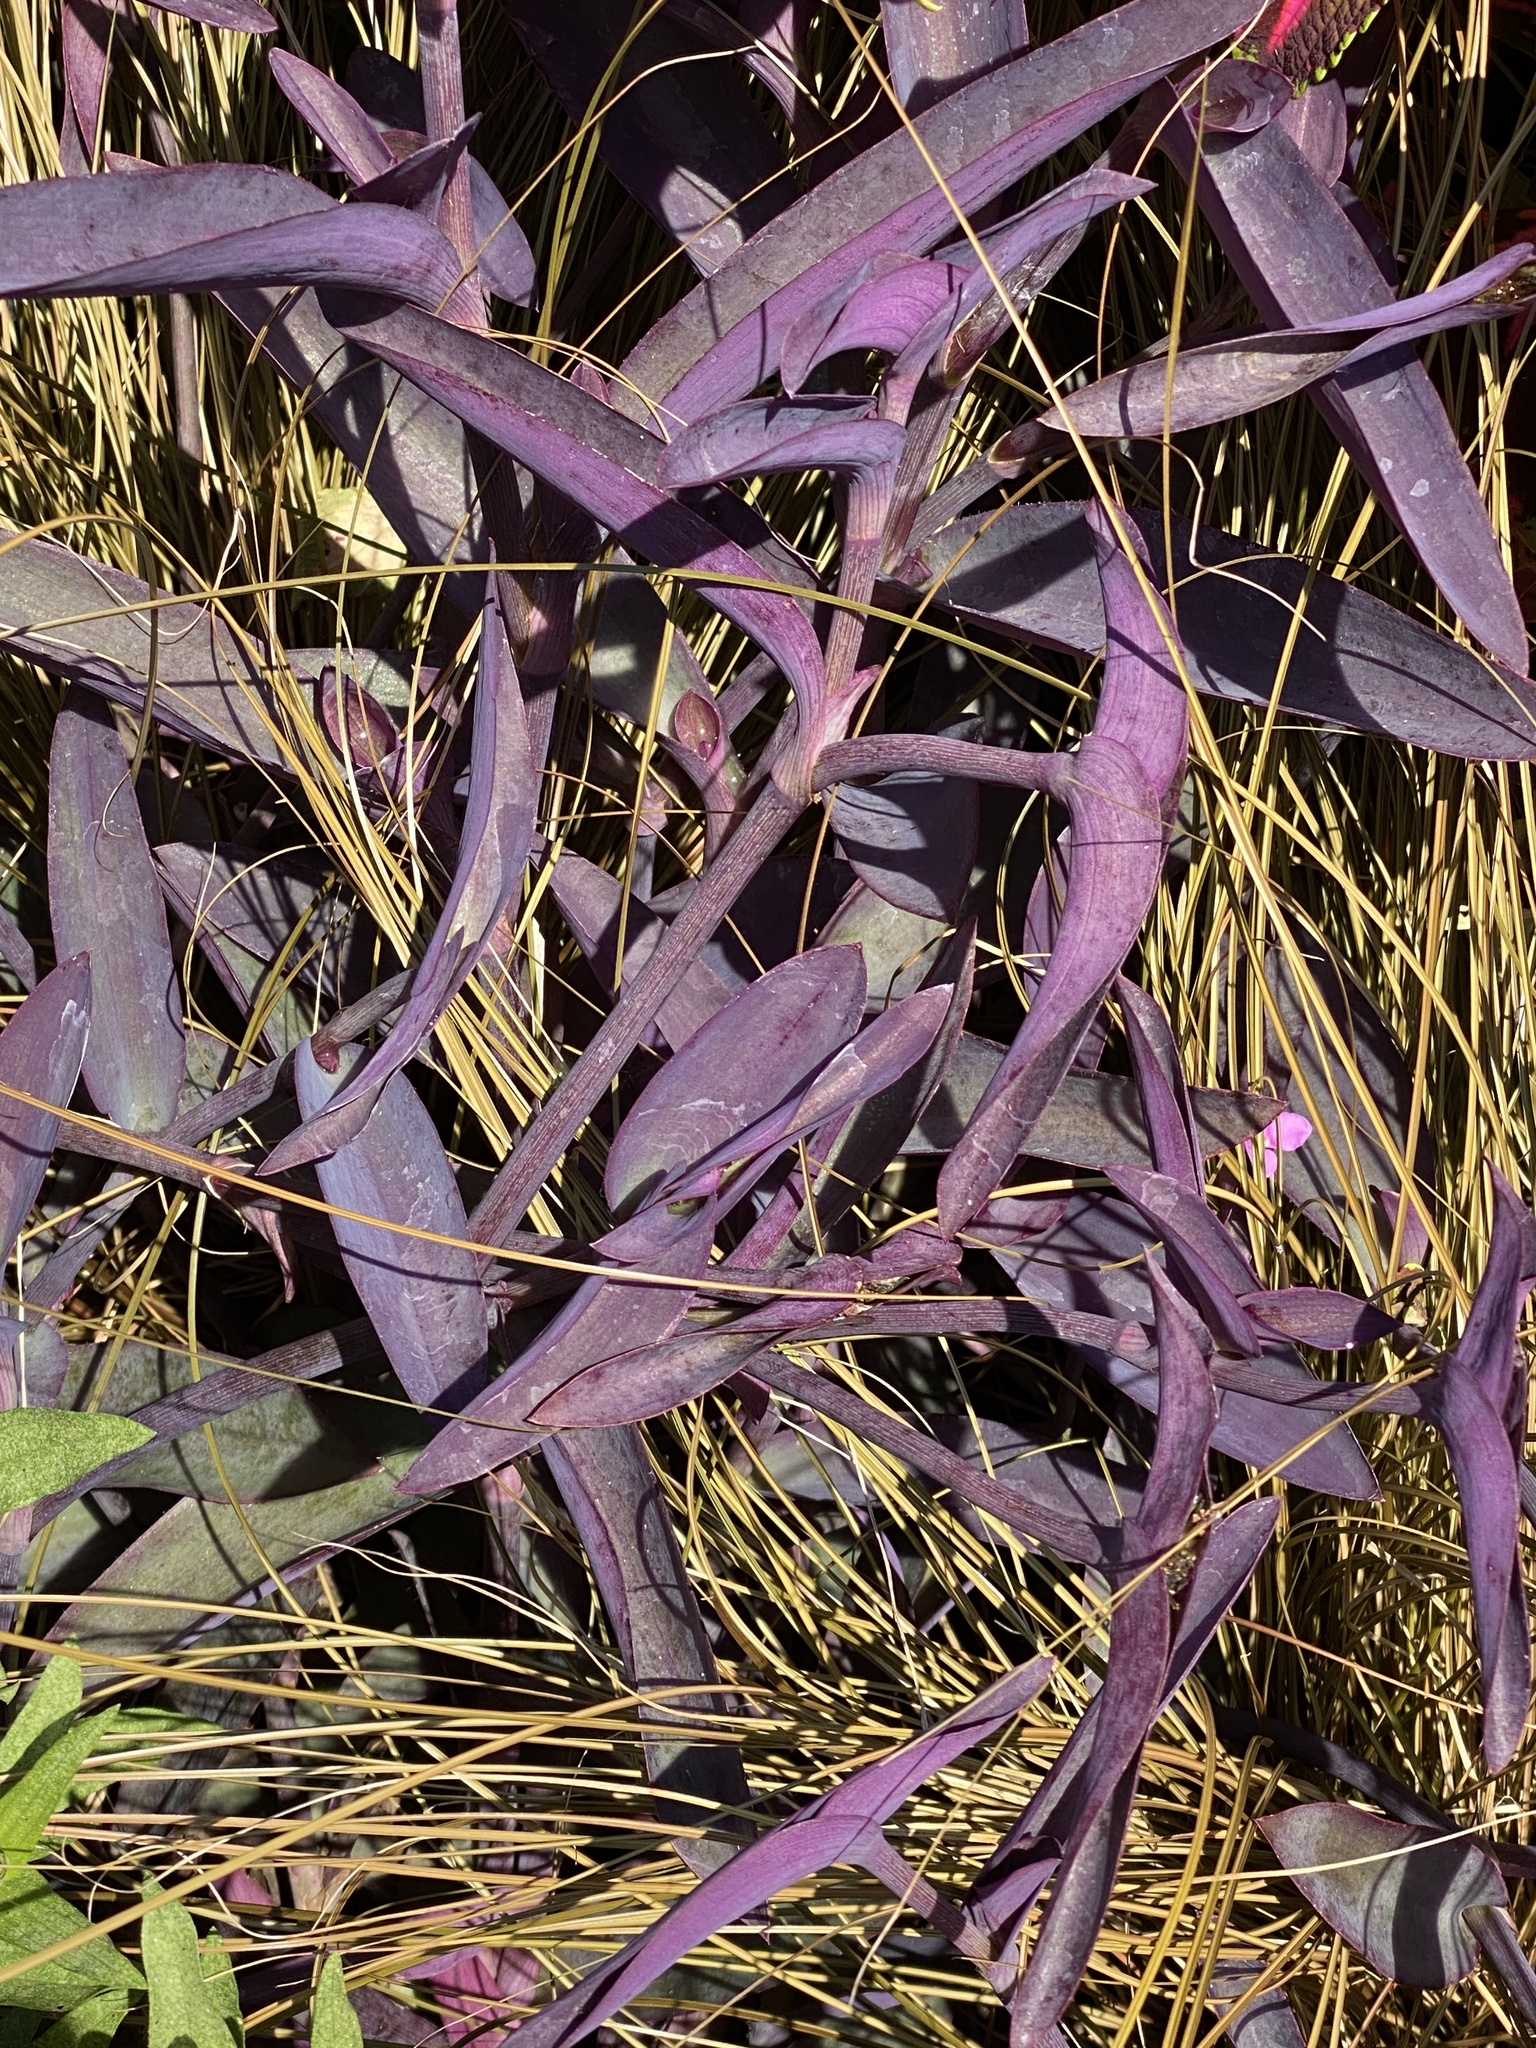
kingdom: Plantae
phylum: Tracheophyta
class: Liliopsida
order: Commelinales
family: Commelinaceae
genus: Tradescantia
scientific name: Tradescantia pallida
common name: Purpleheart
